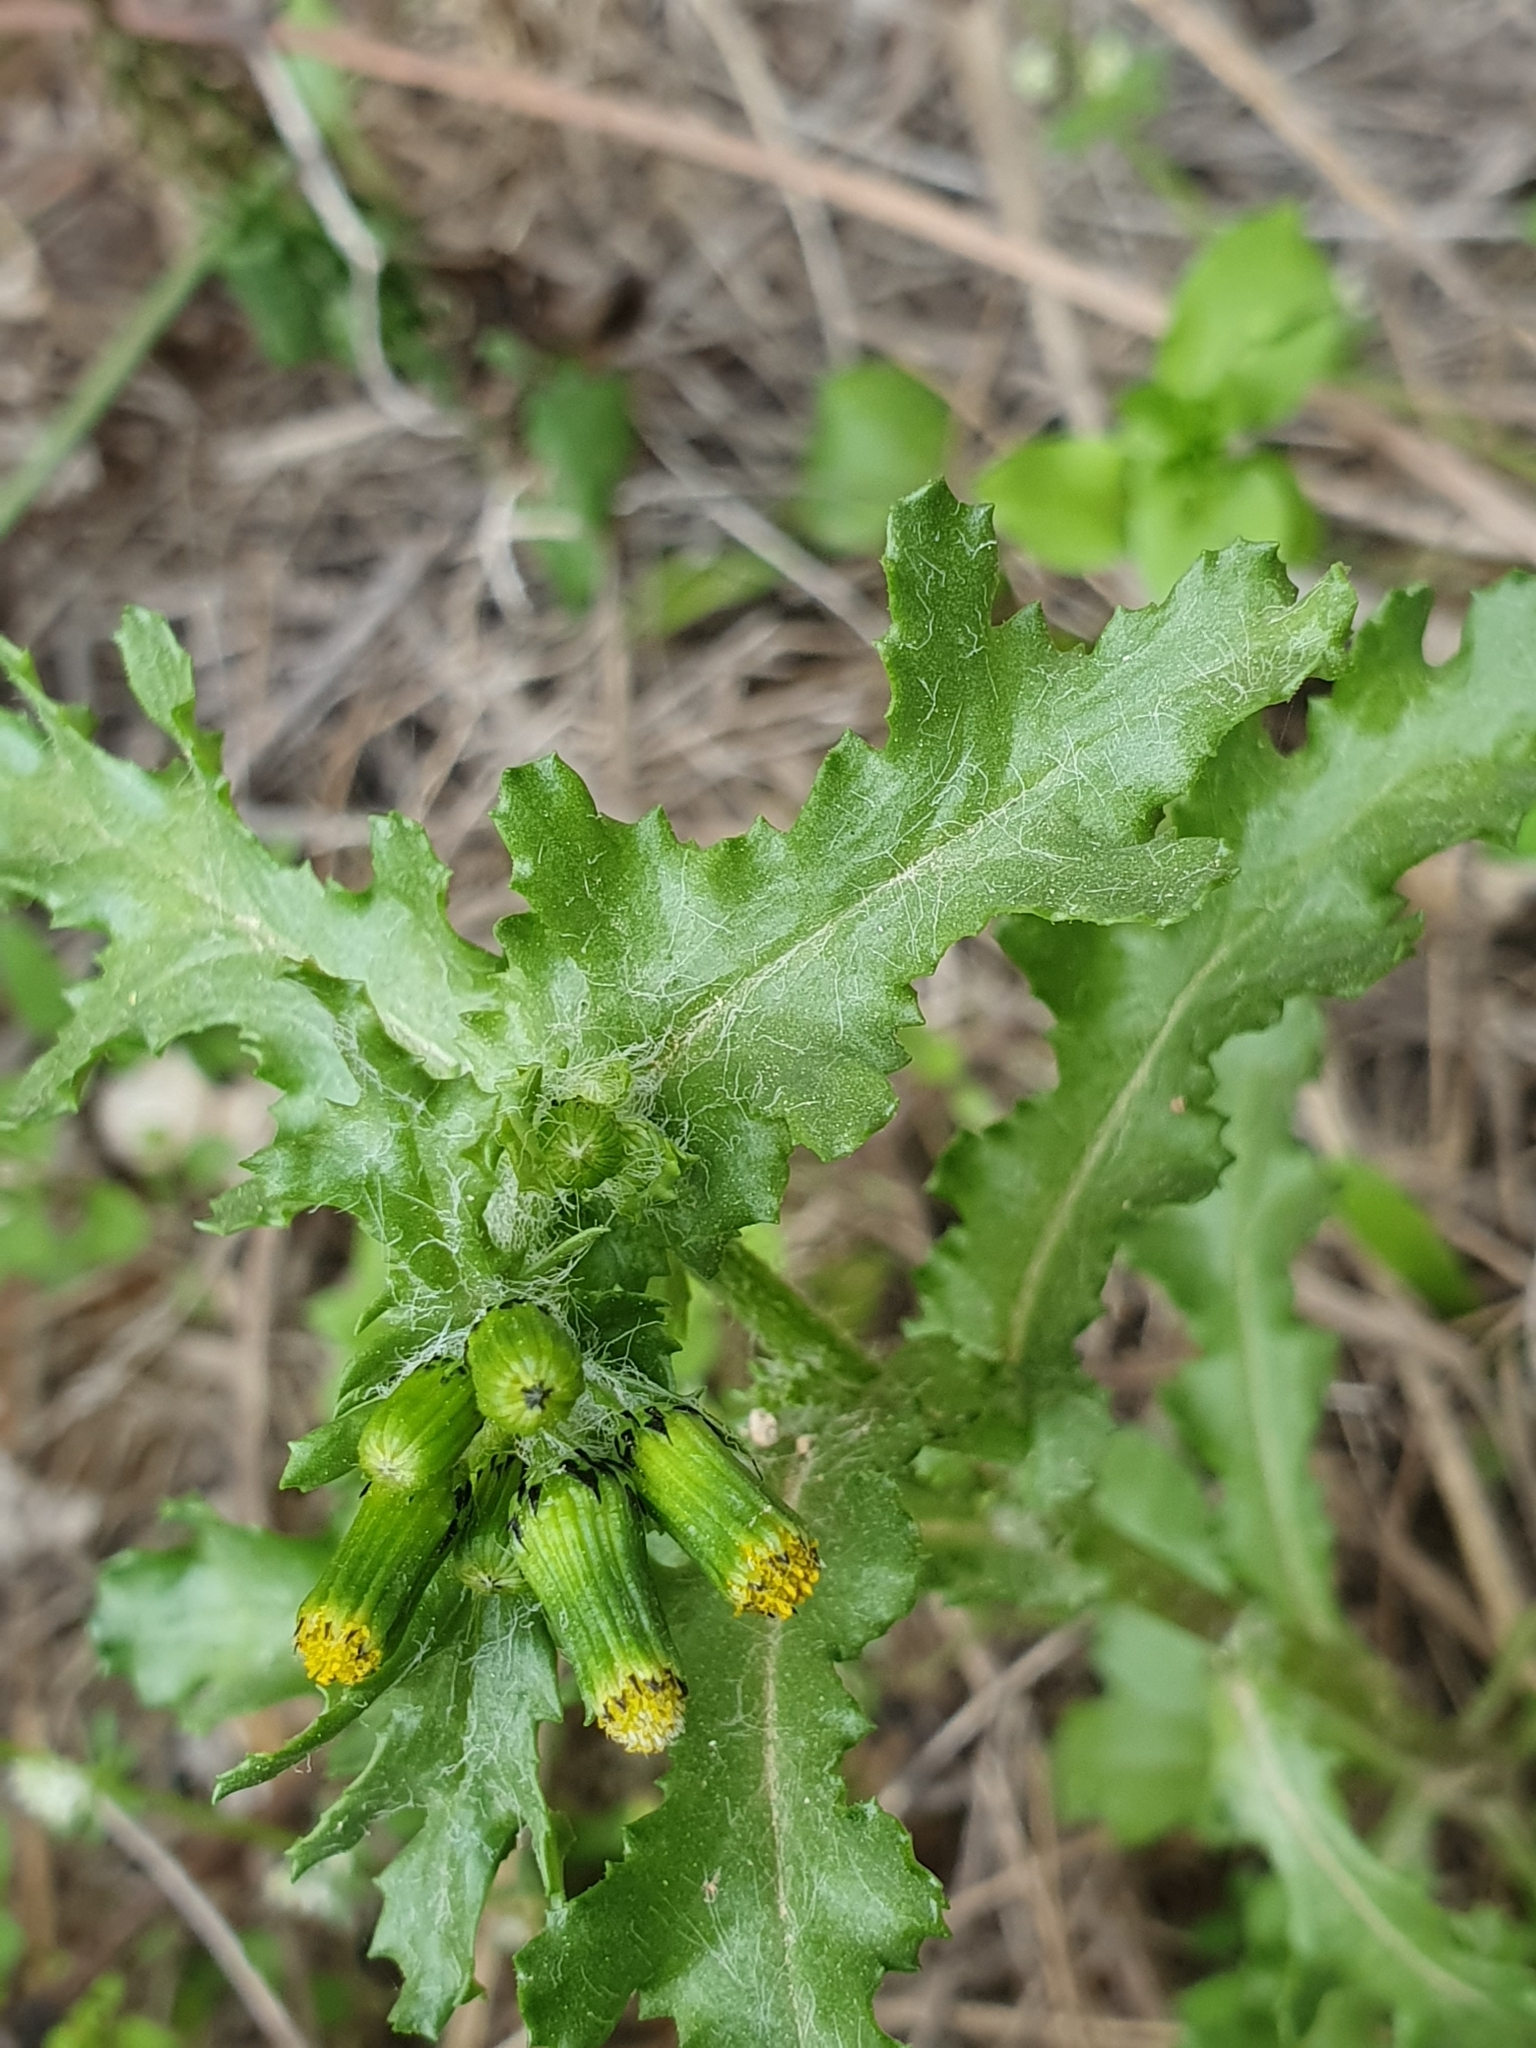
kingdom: Plantae
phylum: Tracheophyta
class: Magnoliopsida
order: Asterales
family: Asteraceae
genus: Senecio
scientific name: Senecio vulgaris
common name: Old-man-in-the-spring
